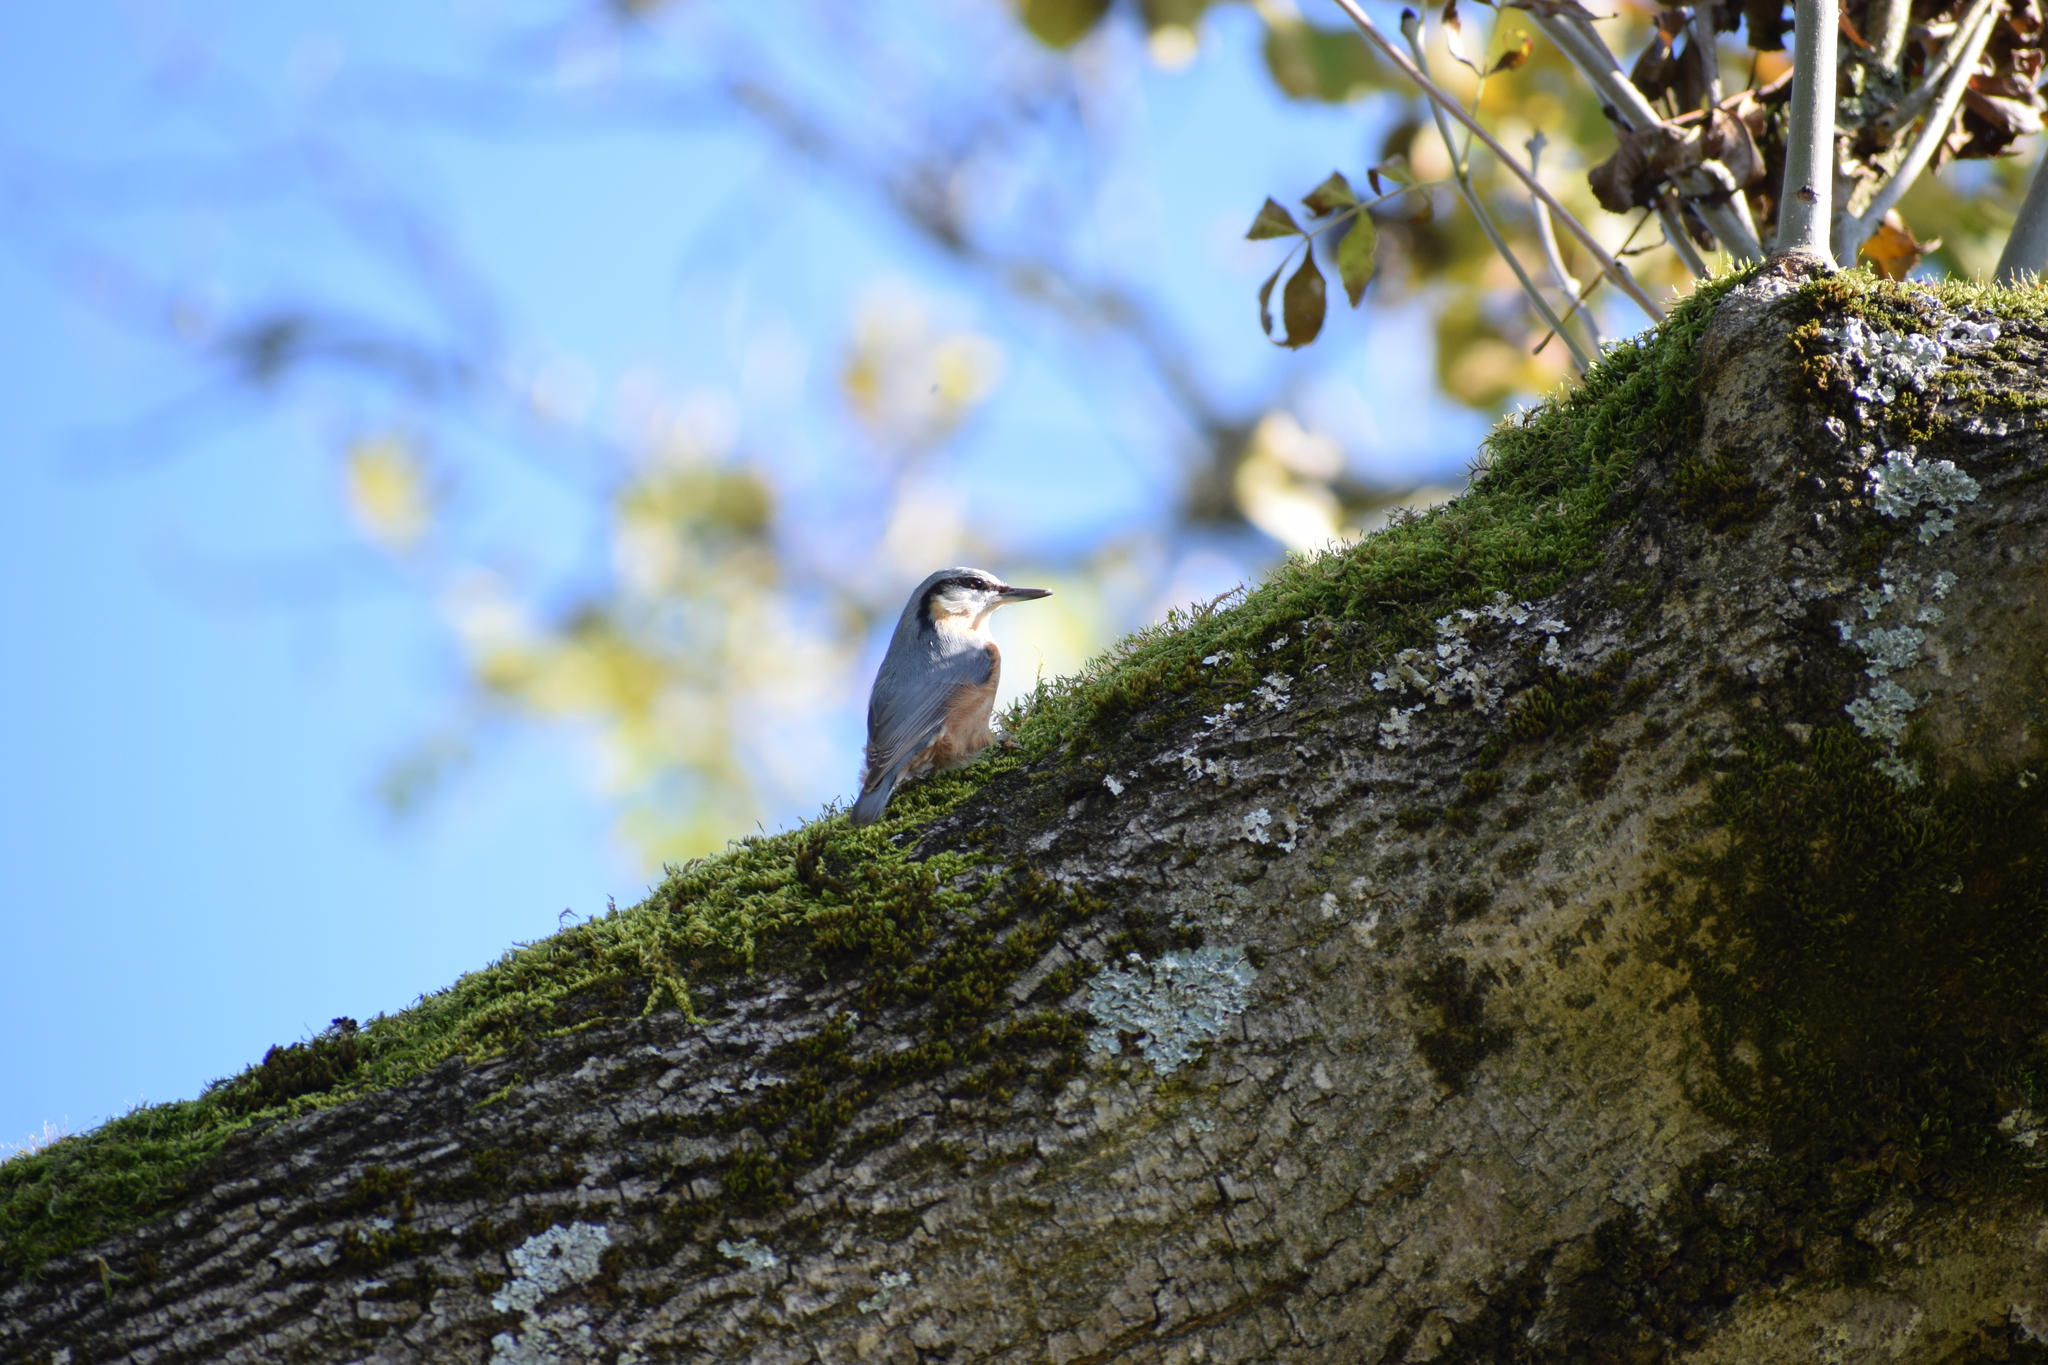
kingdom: Animalia
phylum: Chordata
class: Aves
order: Passeriformes
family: Sittidae
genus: Sitta
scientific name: Sitta europaea
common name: Eurasian nuthatch
